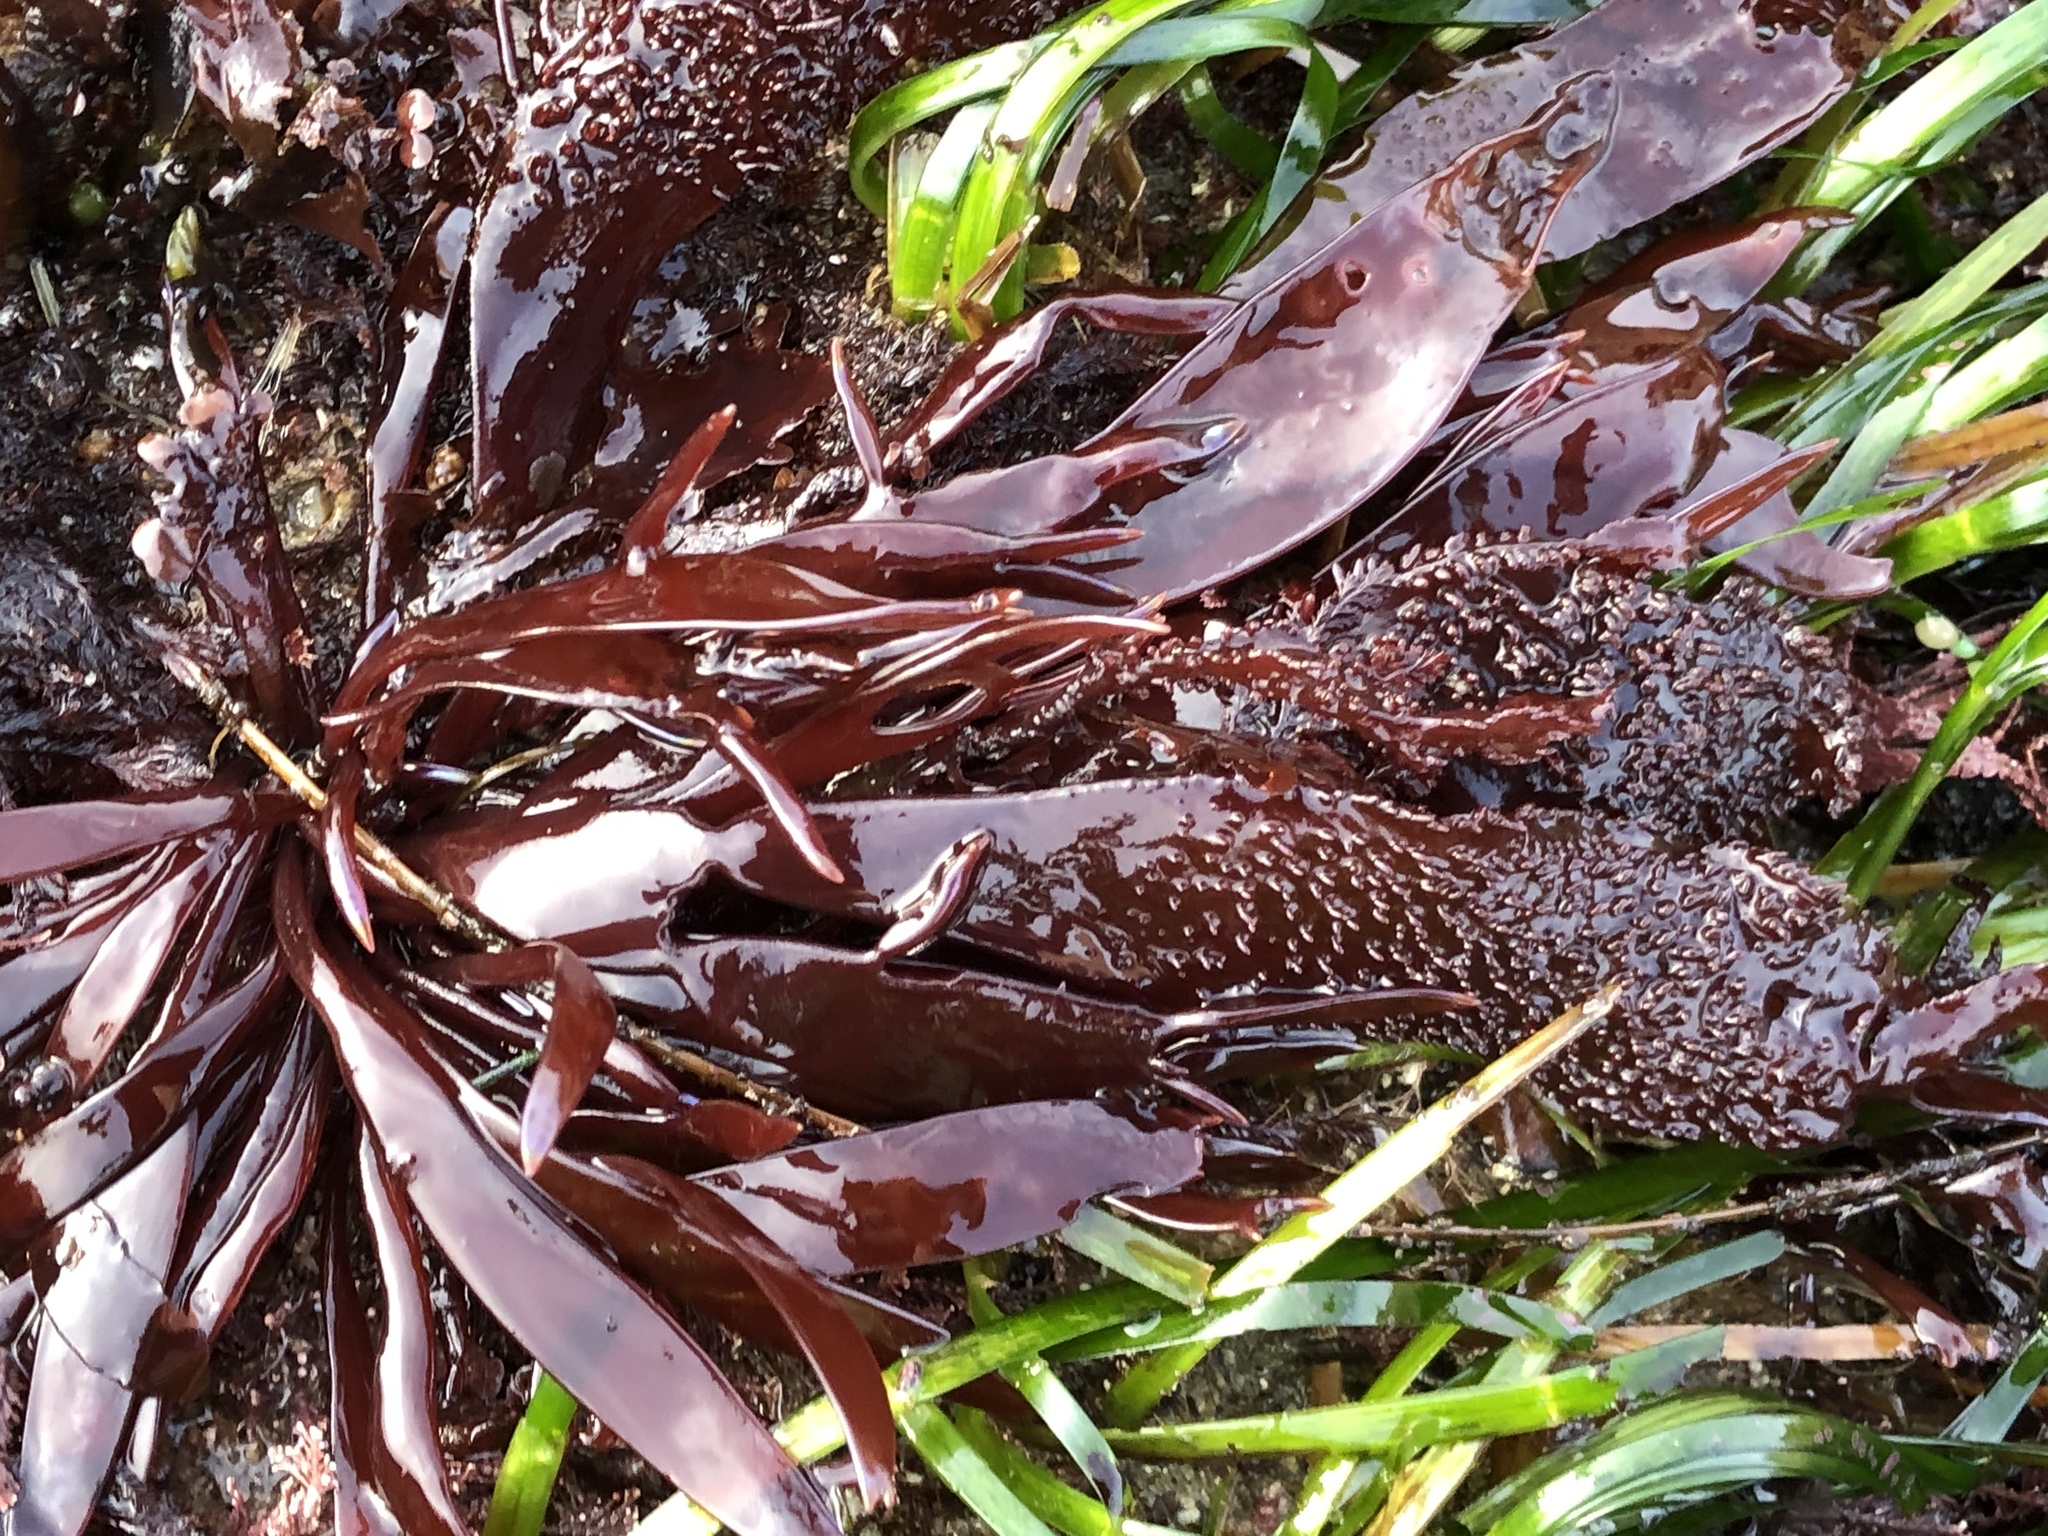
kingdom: Plantae
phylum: Rhodophyta
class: Florideophyceae
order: Gigartinales
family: Gigartinaceae
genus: Chondracanthus
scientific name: Chondracanthus exasperatus
